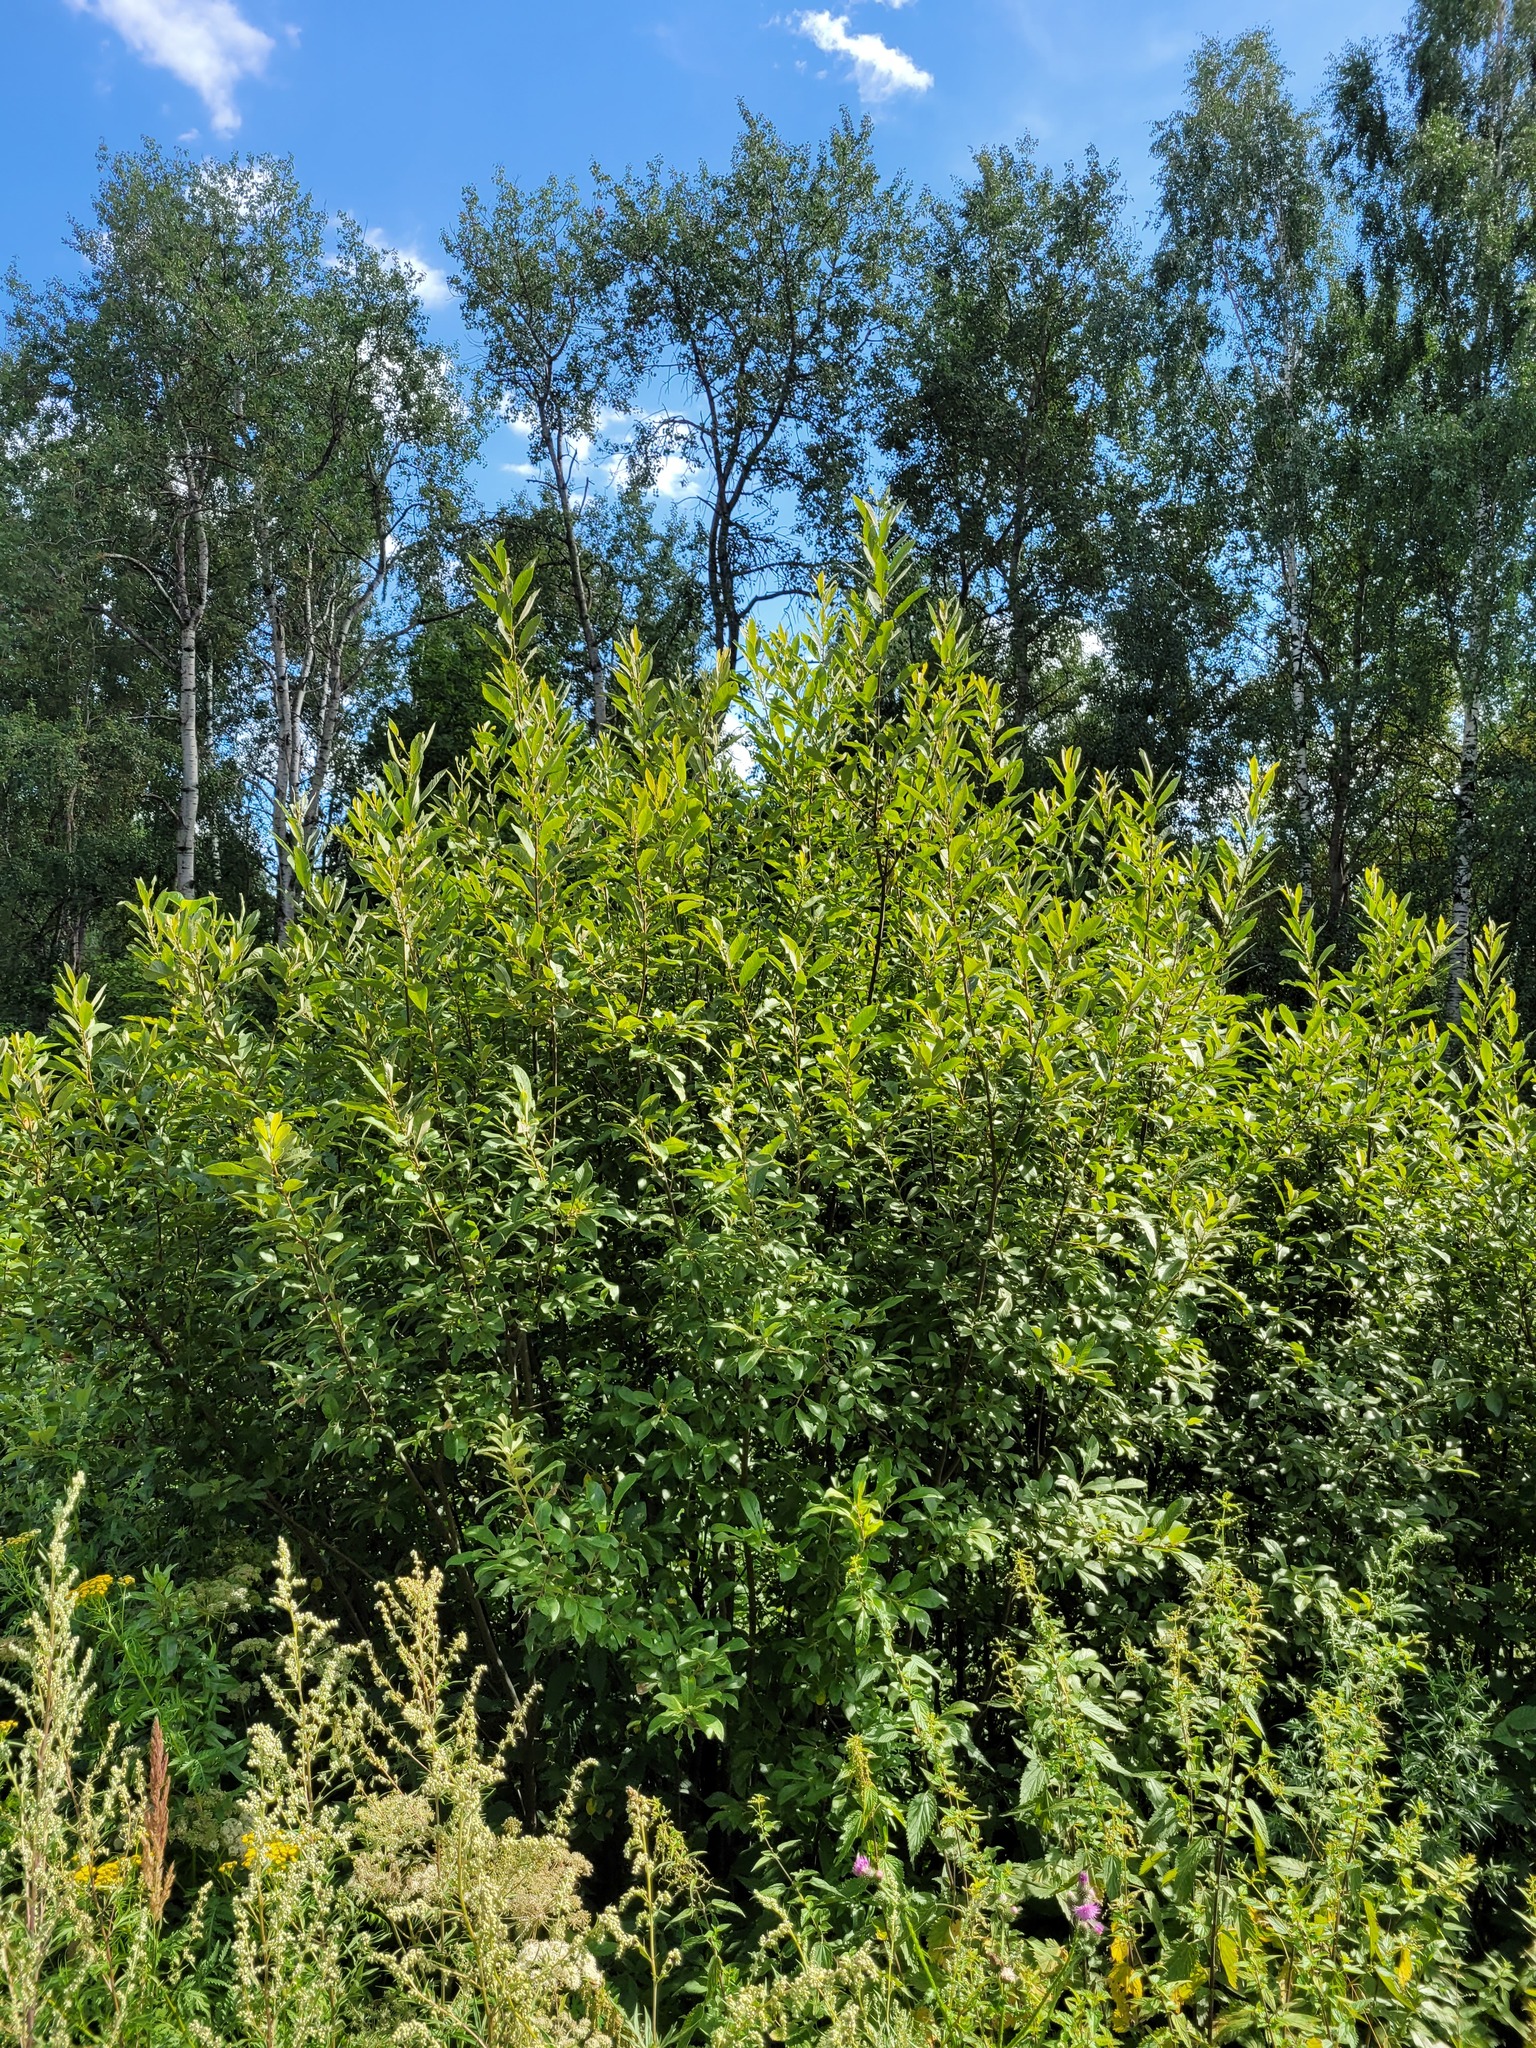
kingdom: Plantae
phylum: Tracheophyta
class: Magnoliopsida
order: Malpighiales
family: Salicaceae
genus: Salix
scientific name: Salix cinerea
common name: Common sallow
